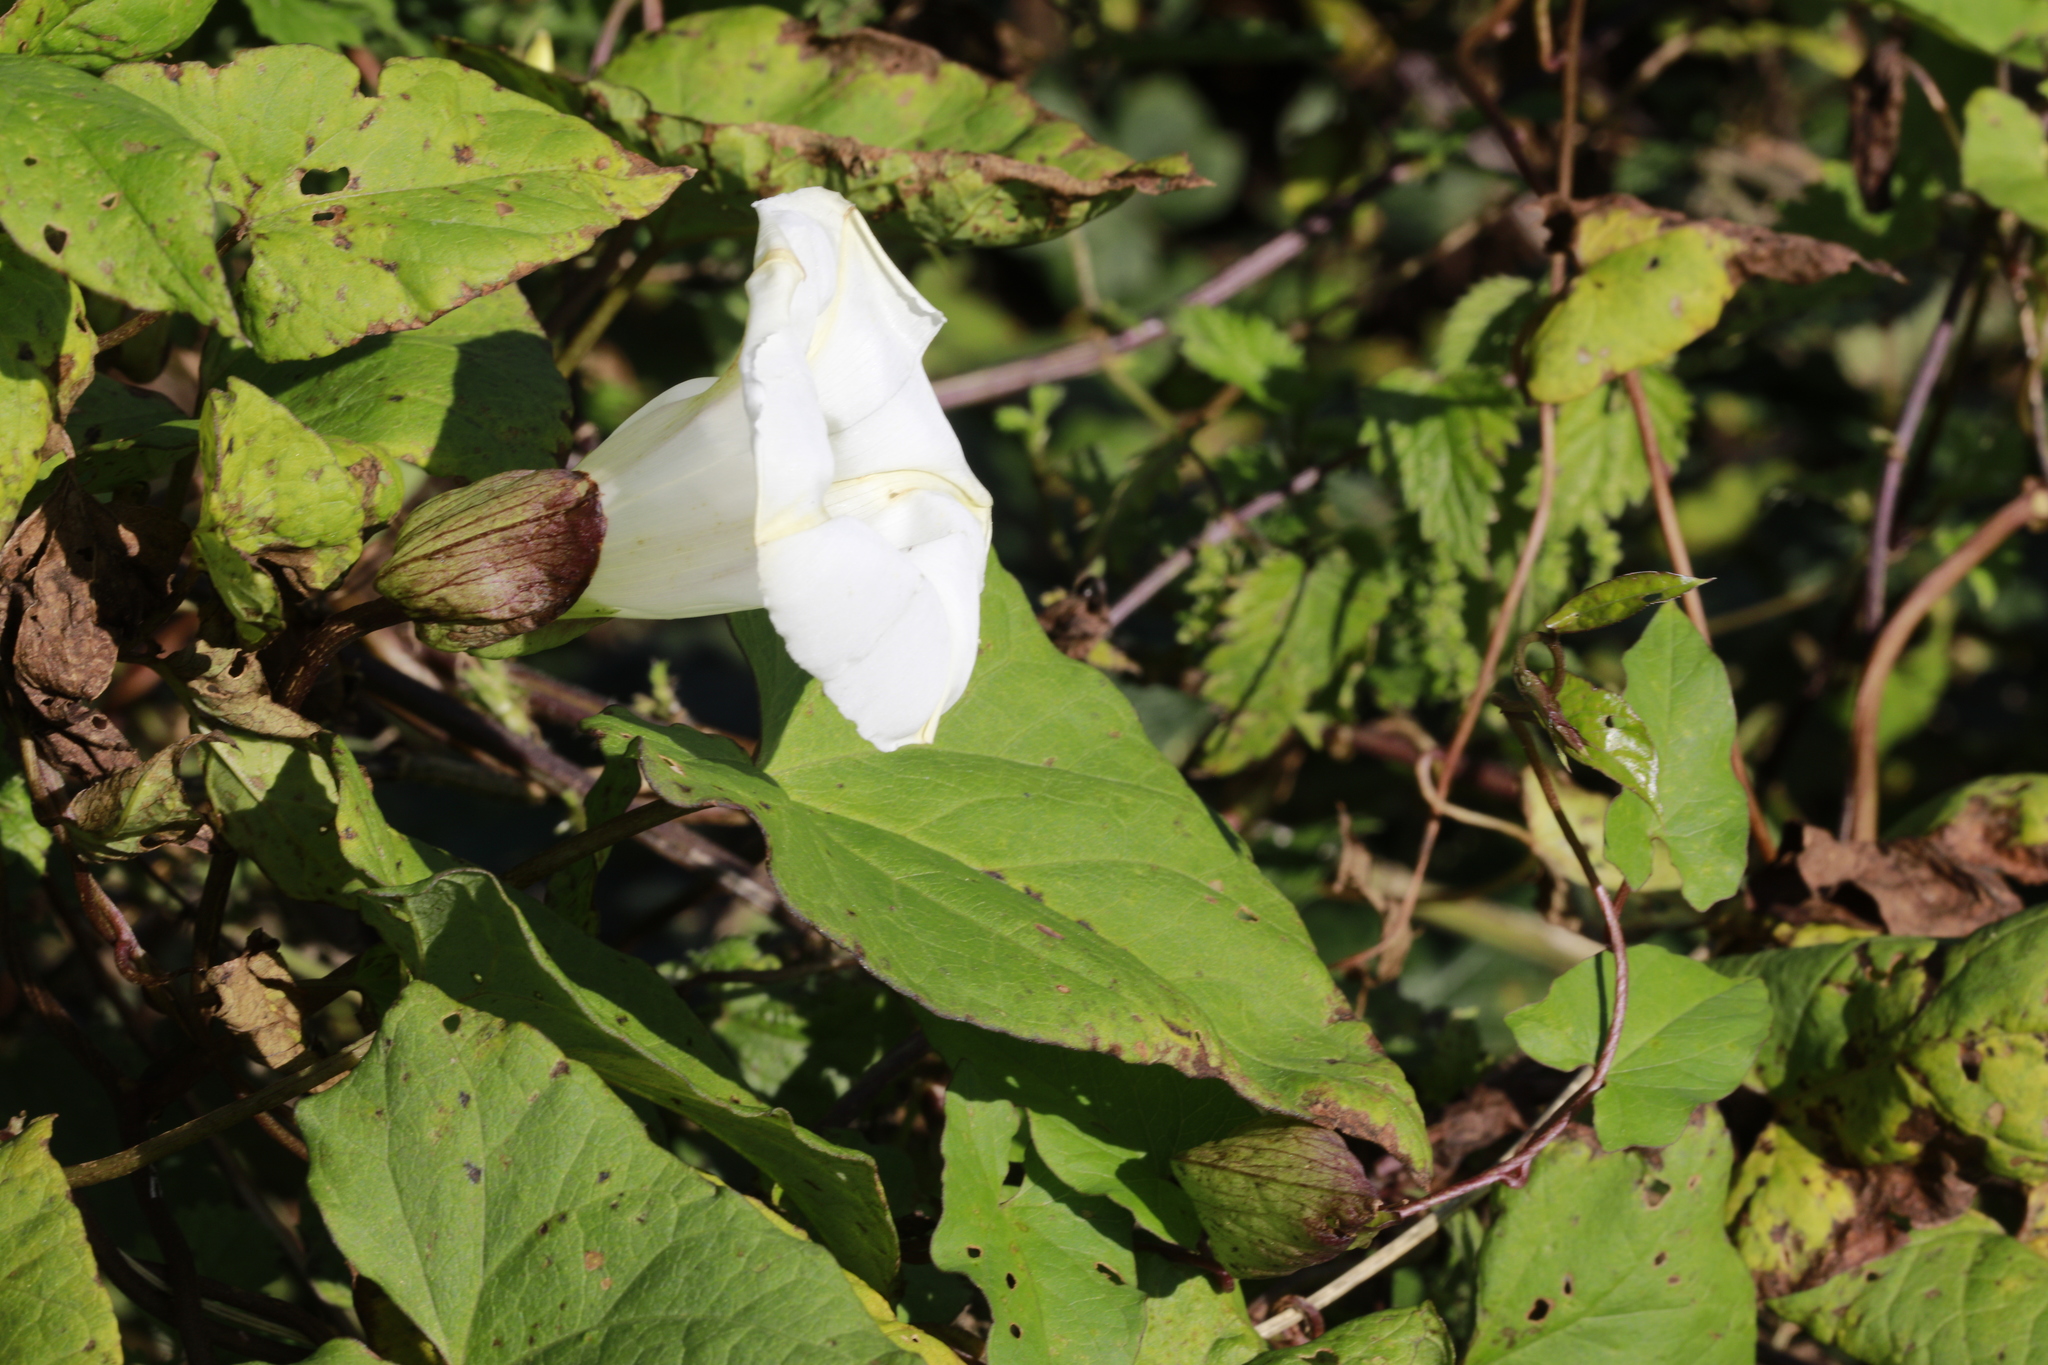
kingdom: Plantae
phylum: Tracheophyta
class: Magnoliopsida
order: Solanales
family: Convolvulaceae
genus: Calystegia
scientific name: Calystegia silvatica
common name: Large bindweed
